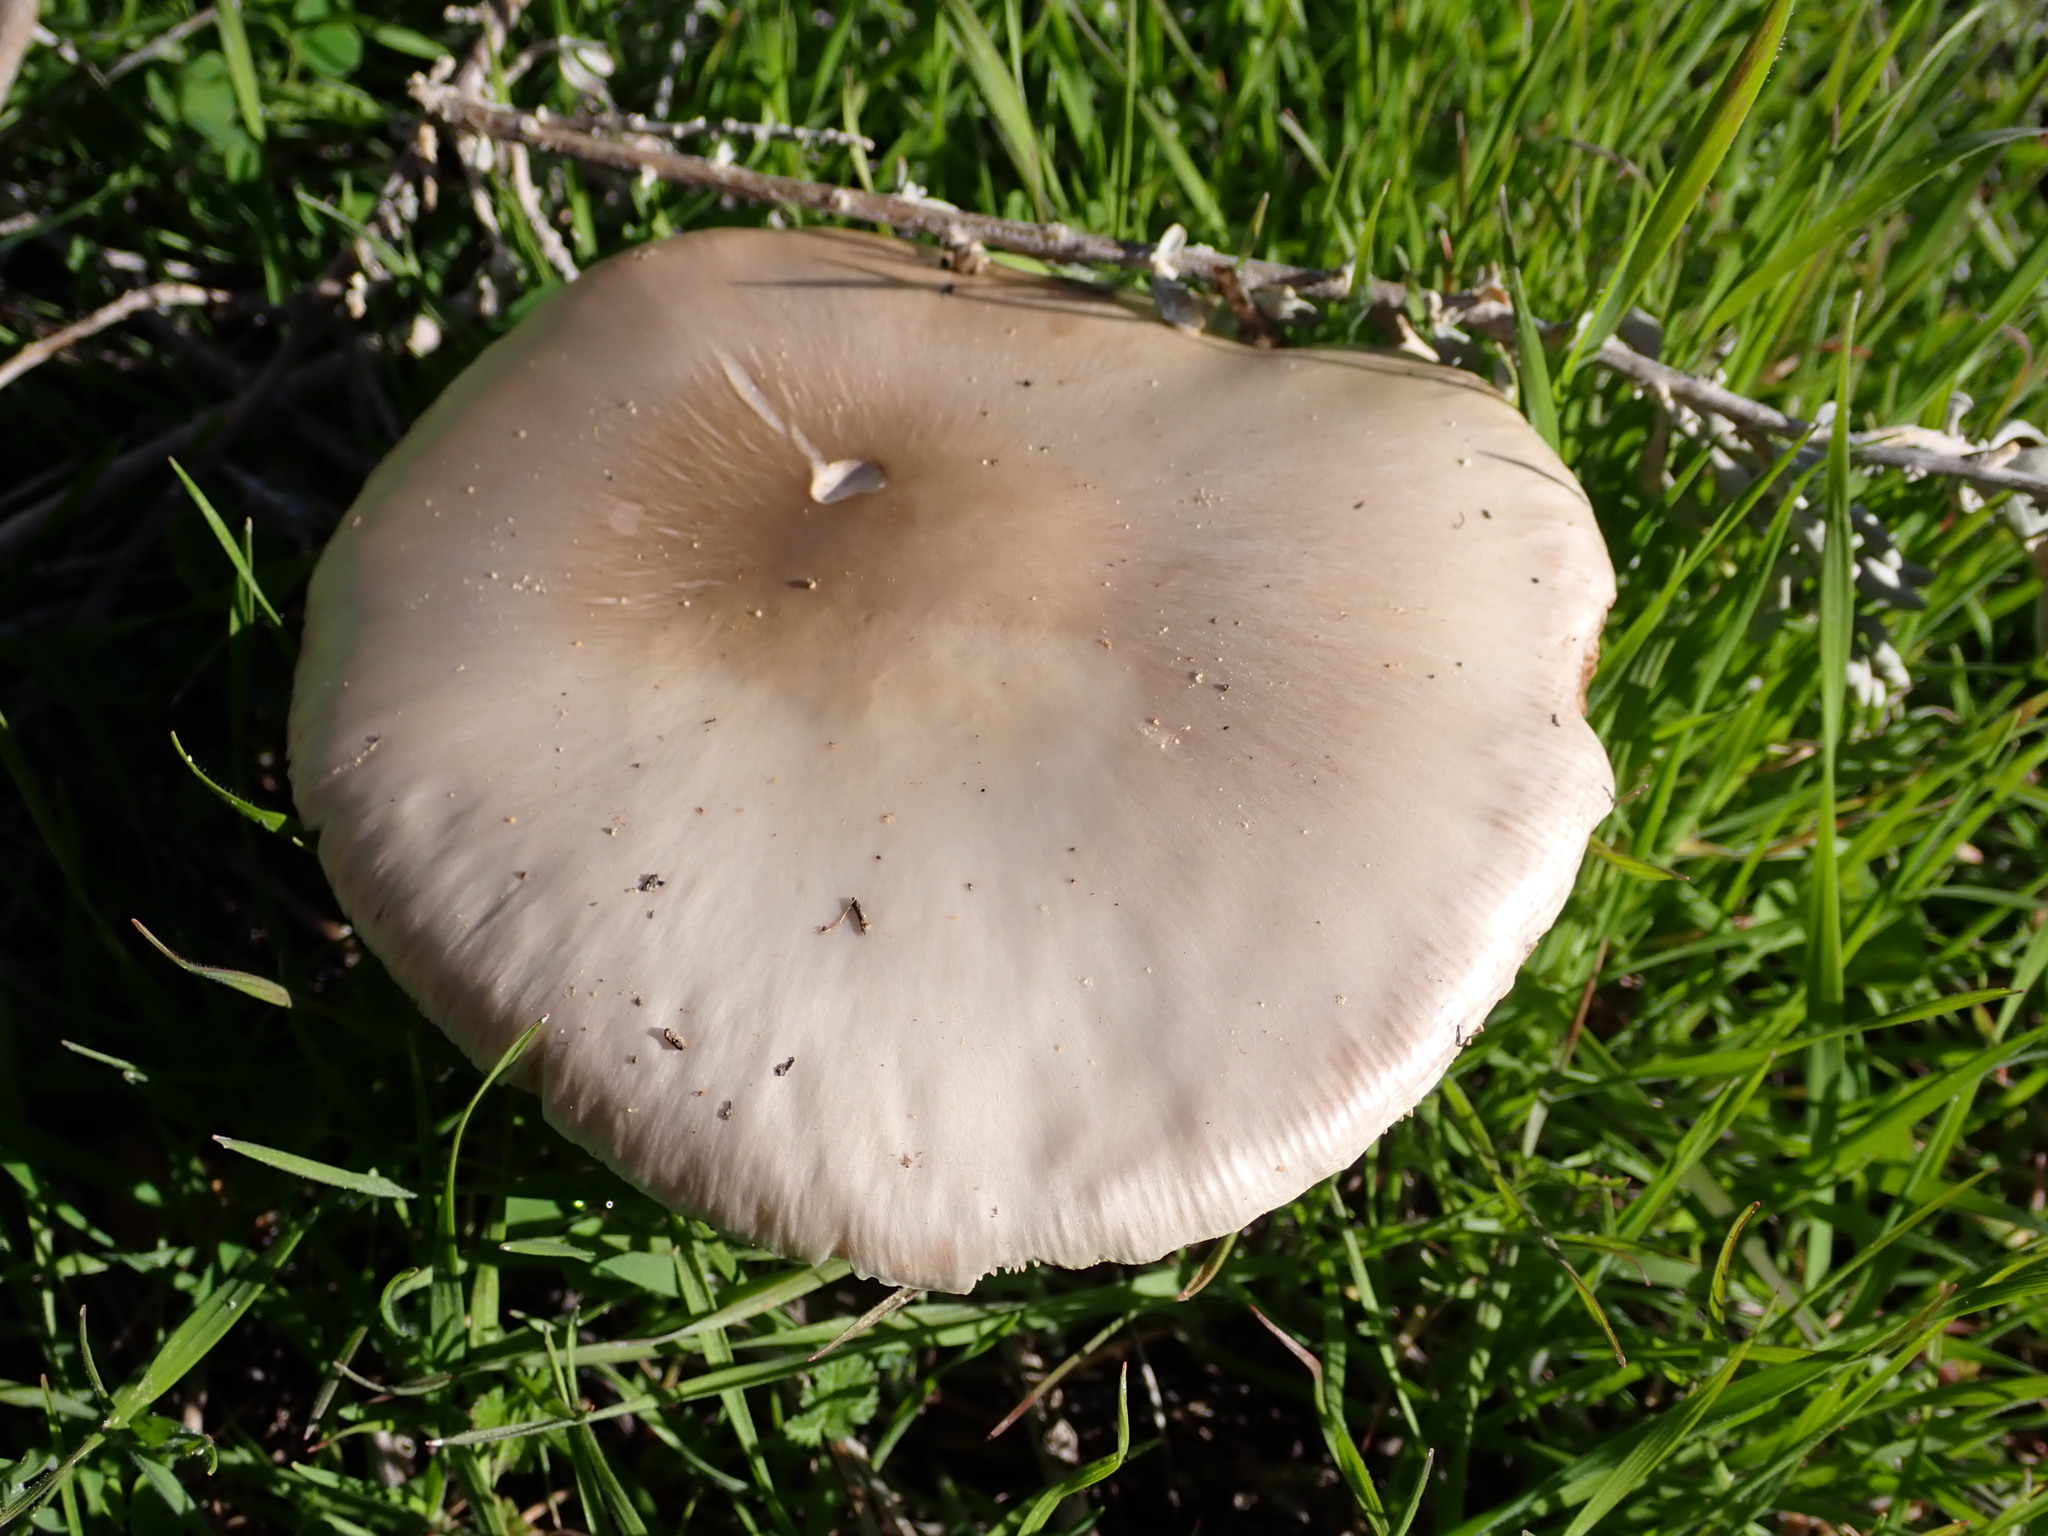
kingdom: Fungi
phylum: Basidiomycota
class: Agaricomycetes
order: Agaricales
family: Pluteaceae
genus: Volvopluteus
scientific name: Volvopluteus gloiocephalus
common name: Stubble rosegill
